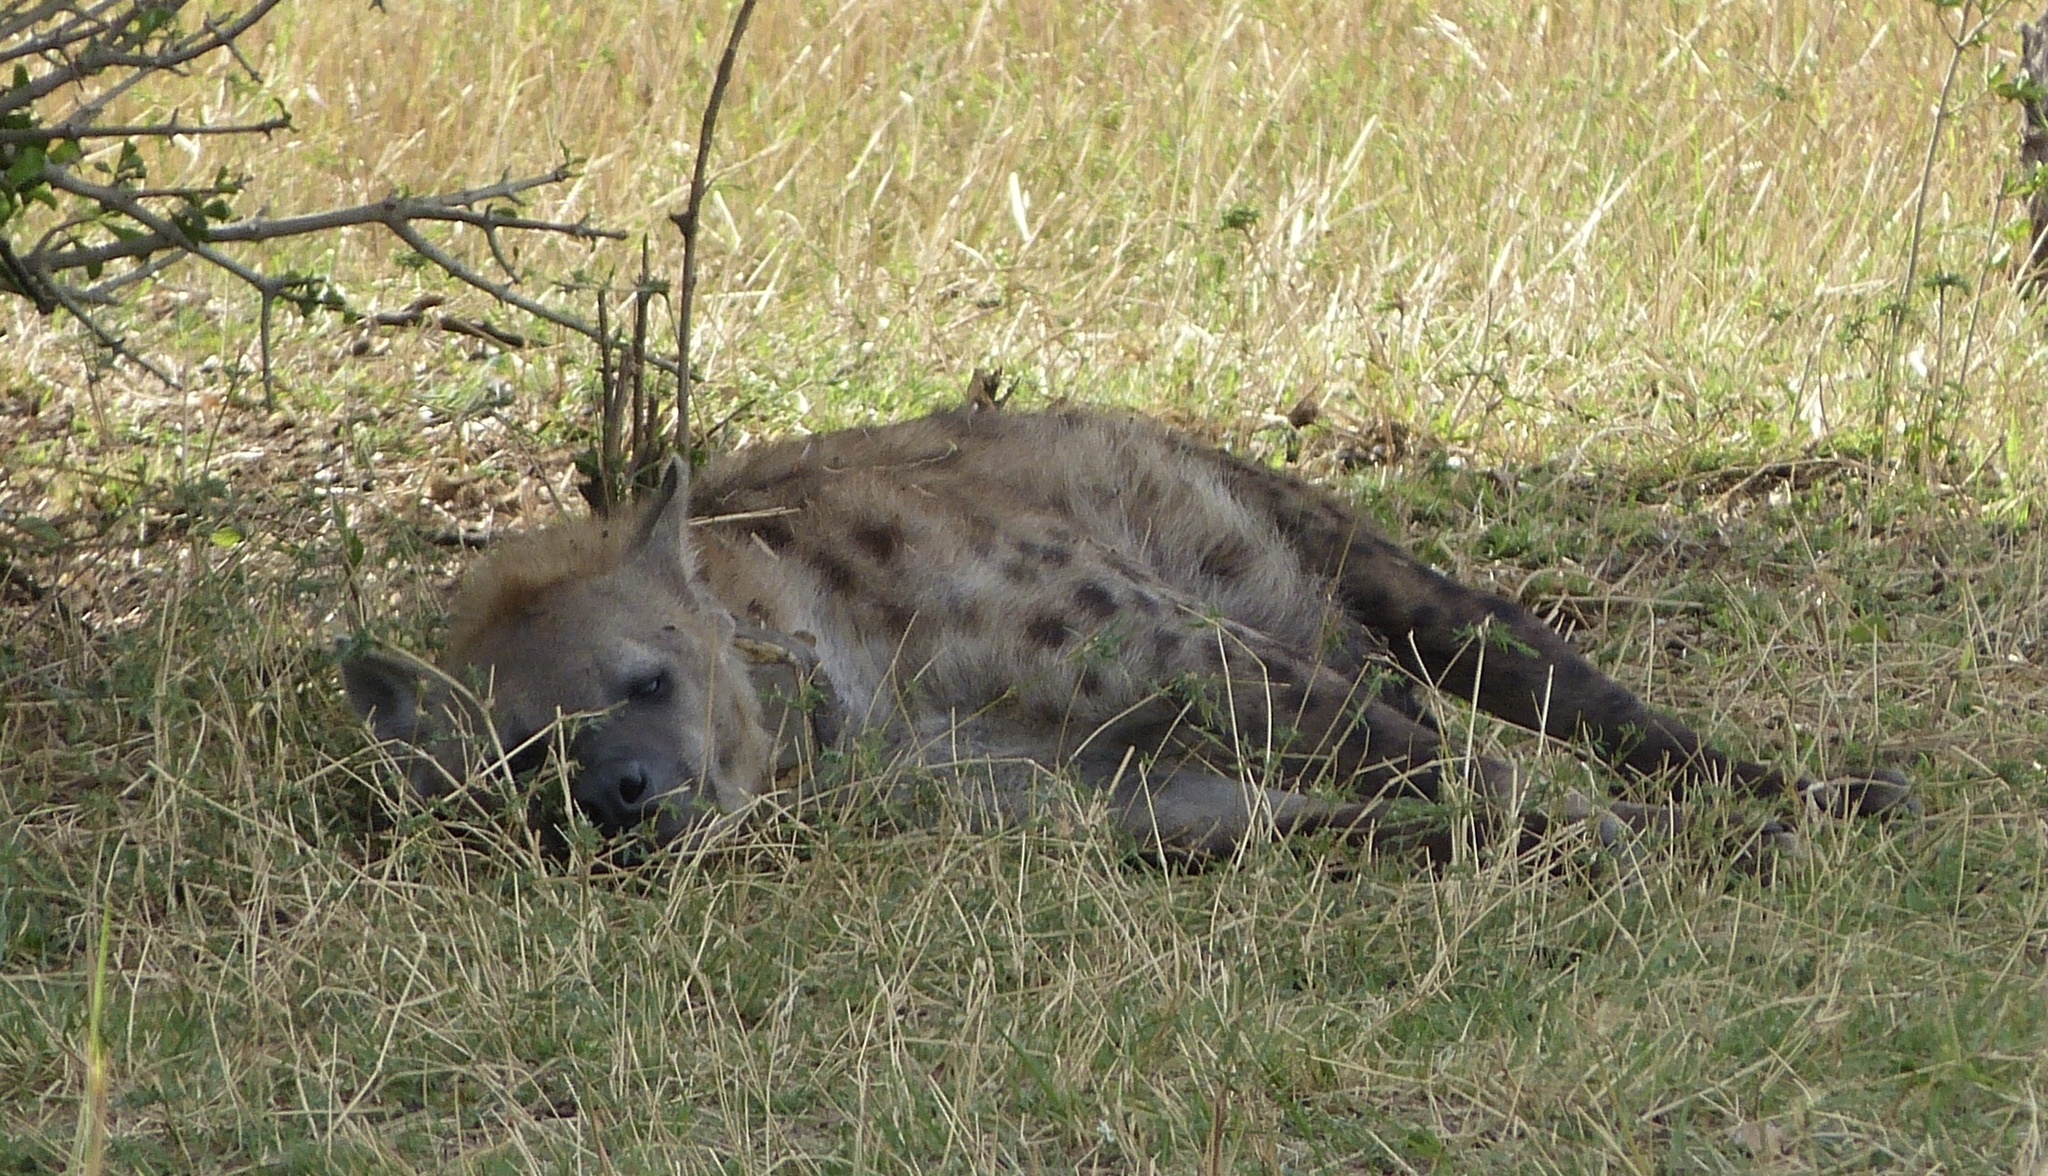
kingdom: Animalia
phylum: Chordata
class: Mammalia
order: Carnivora
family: Hyaenidae
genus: Crocuta
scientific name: Crocuta crocuta
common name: Spotted hyaena
